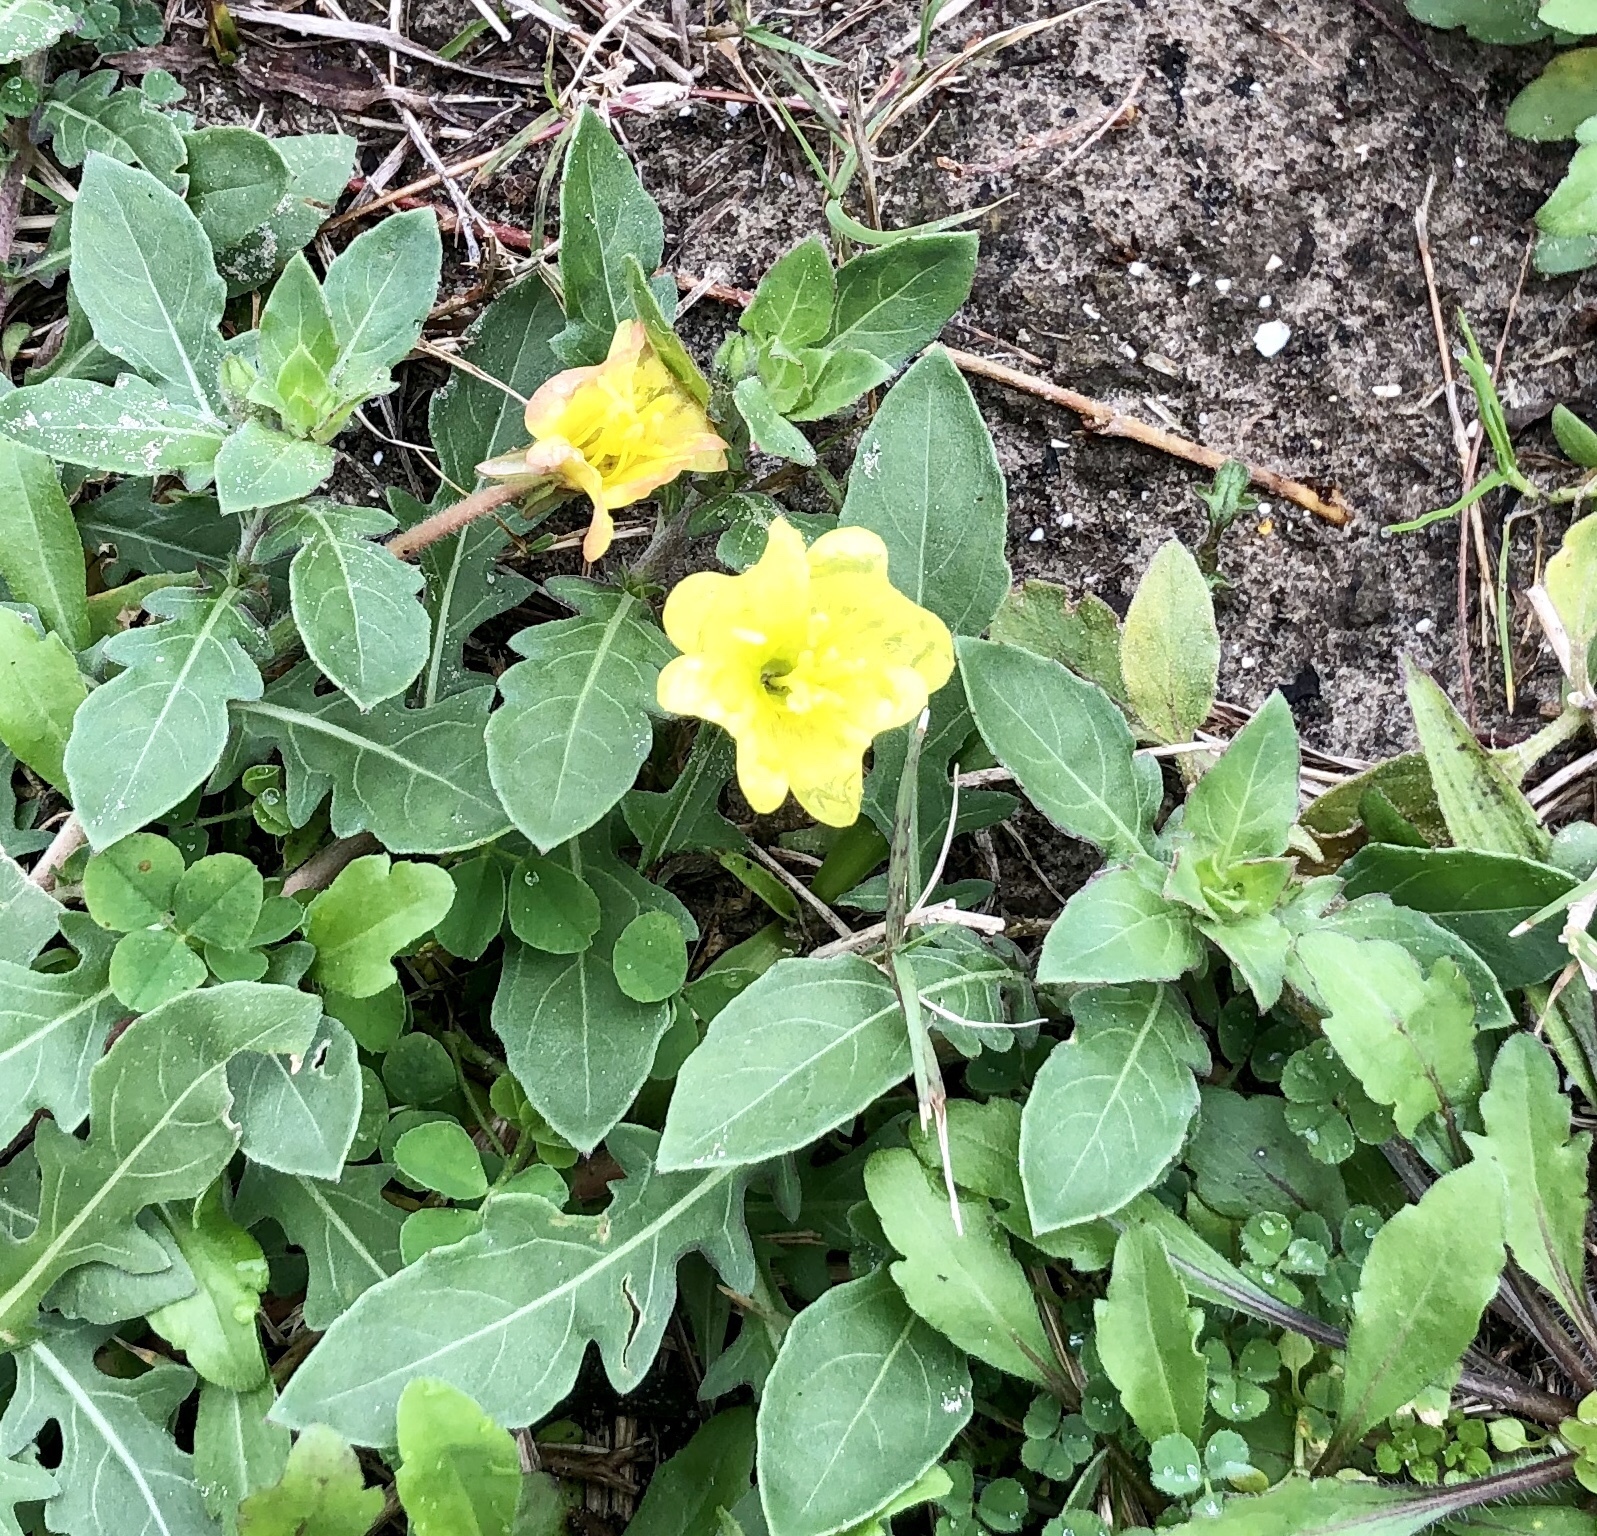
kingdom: Plantae
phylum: Tracheophyta
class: Magnoliopsida
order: Myrtales
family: Onagraceae
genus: Oenothera
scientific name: Oenothera drummondii
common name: Beach evening-primrose
